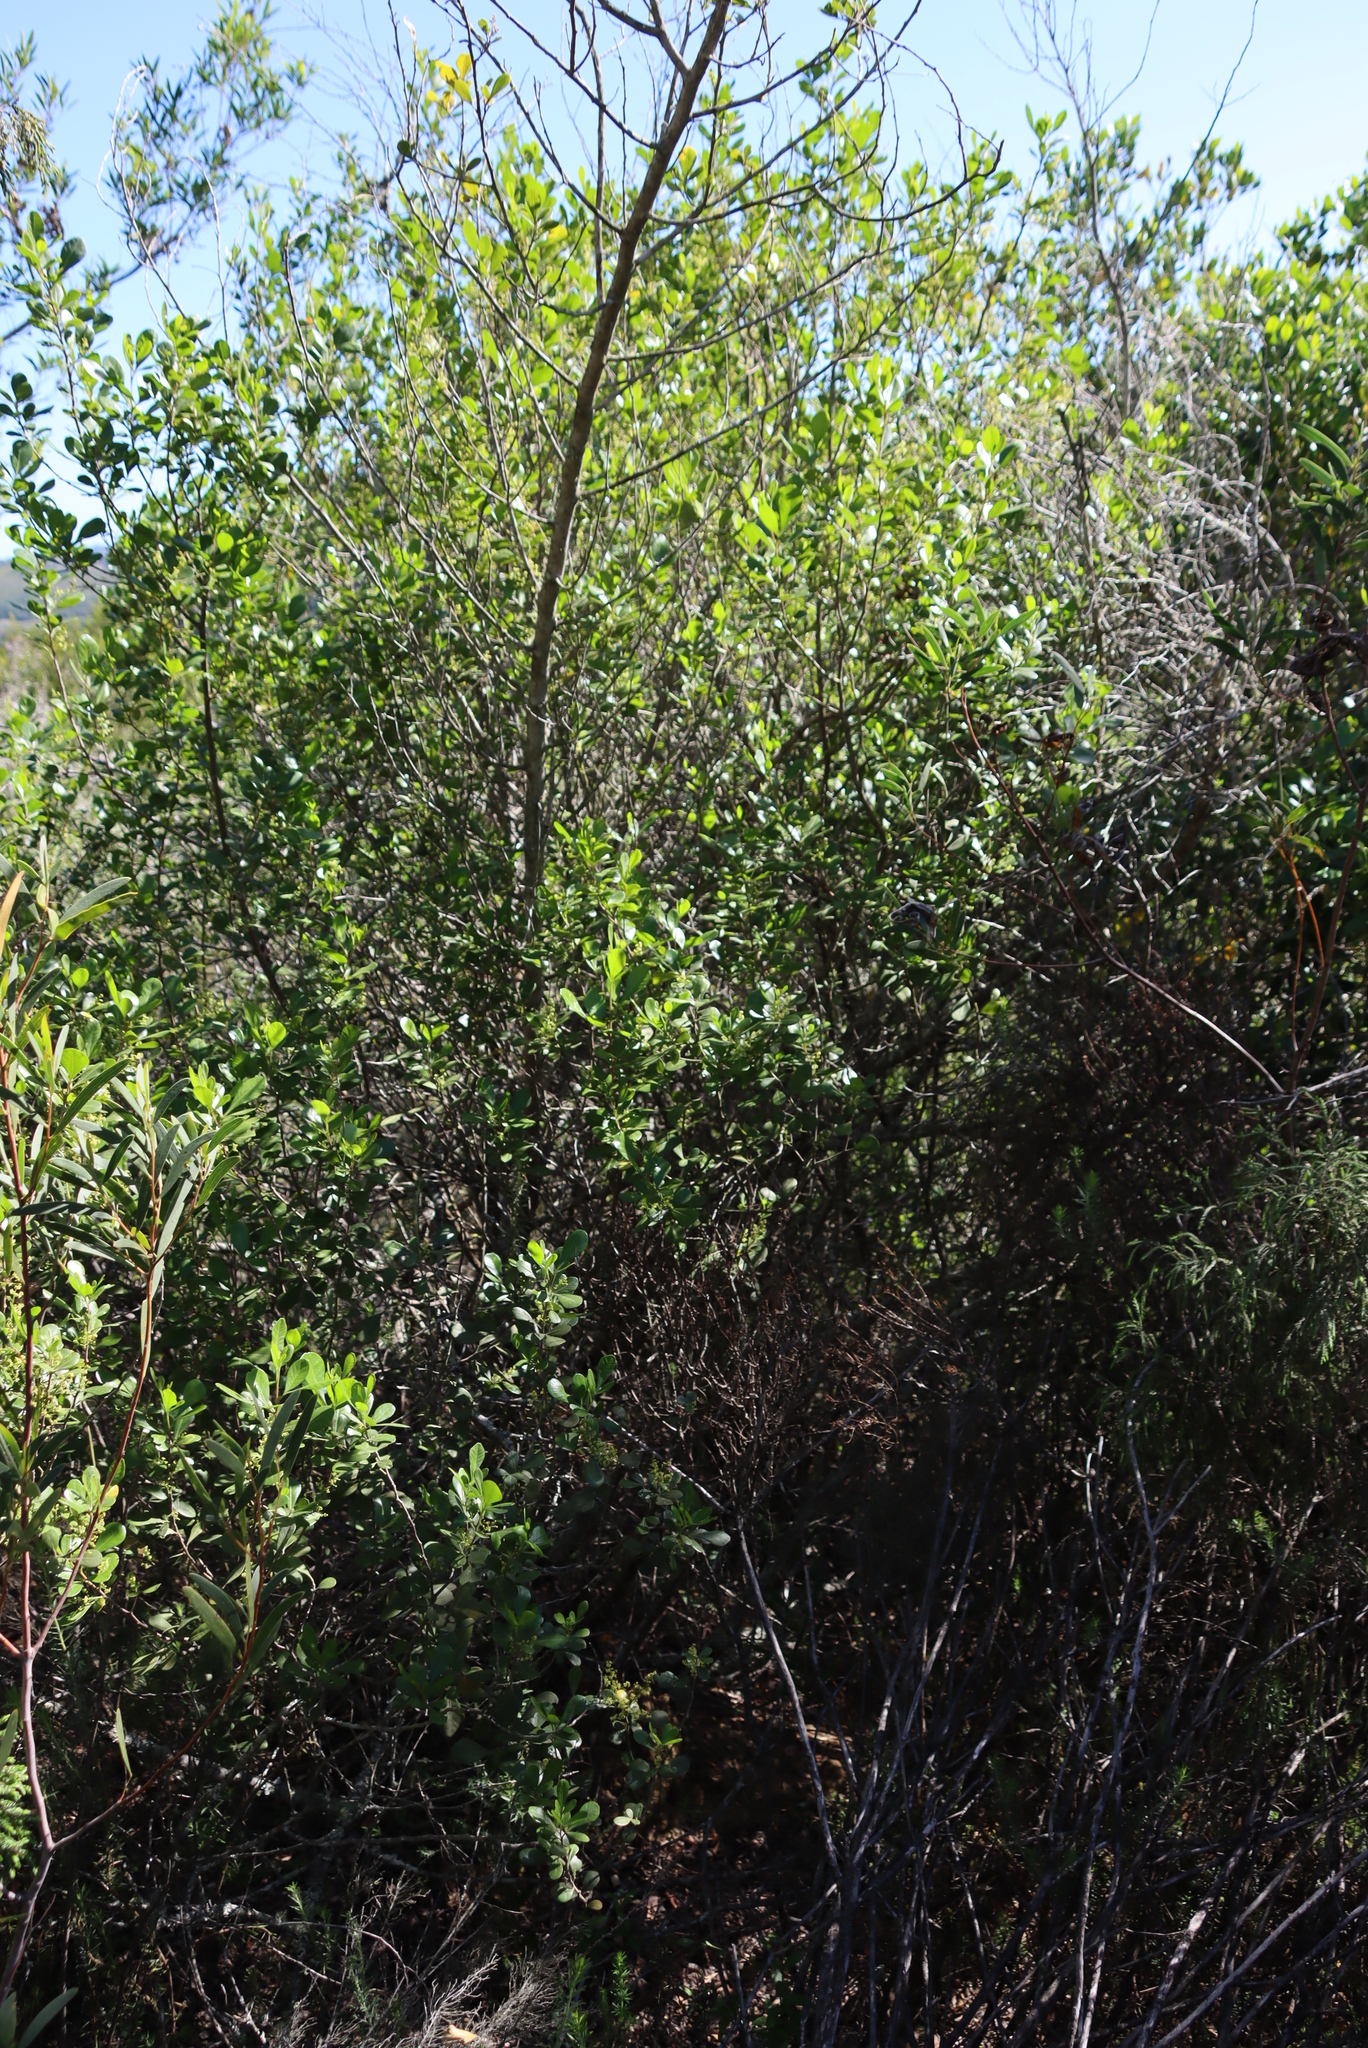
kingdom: Plantae
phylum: Tracheophyta
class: Magnoliopsida
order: Sapindales
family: Anacardiaceae
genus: Searsia
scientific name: Searsia lucida
